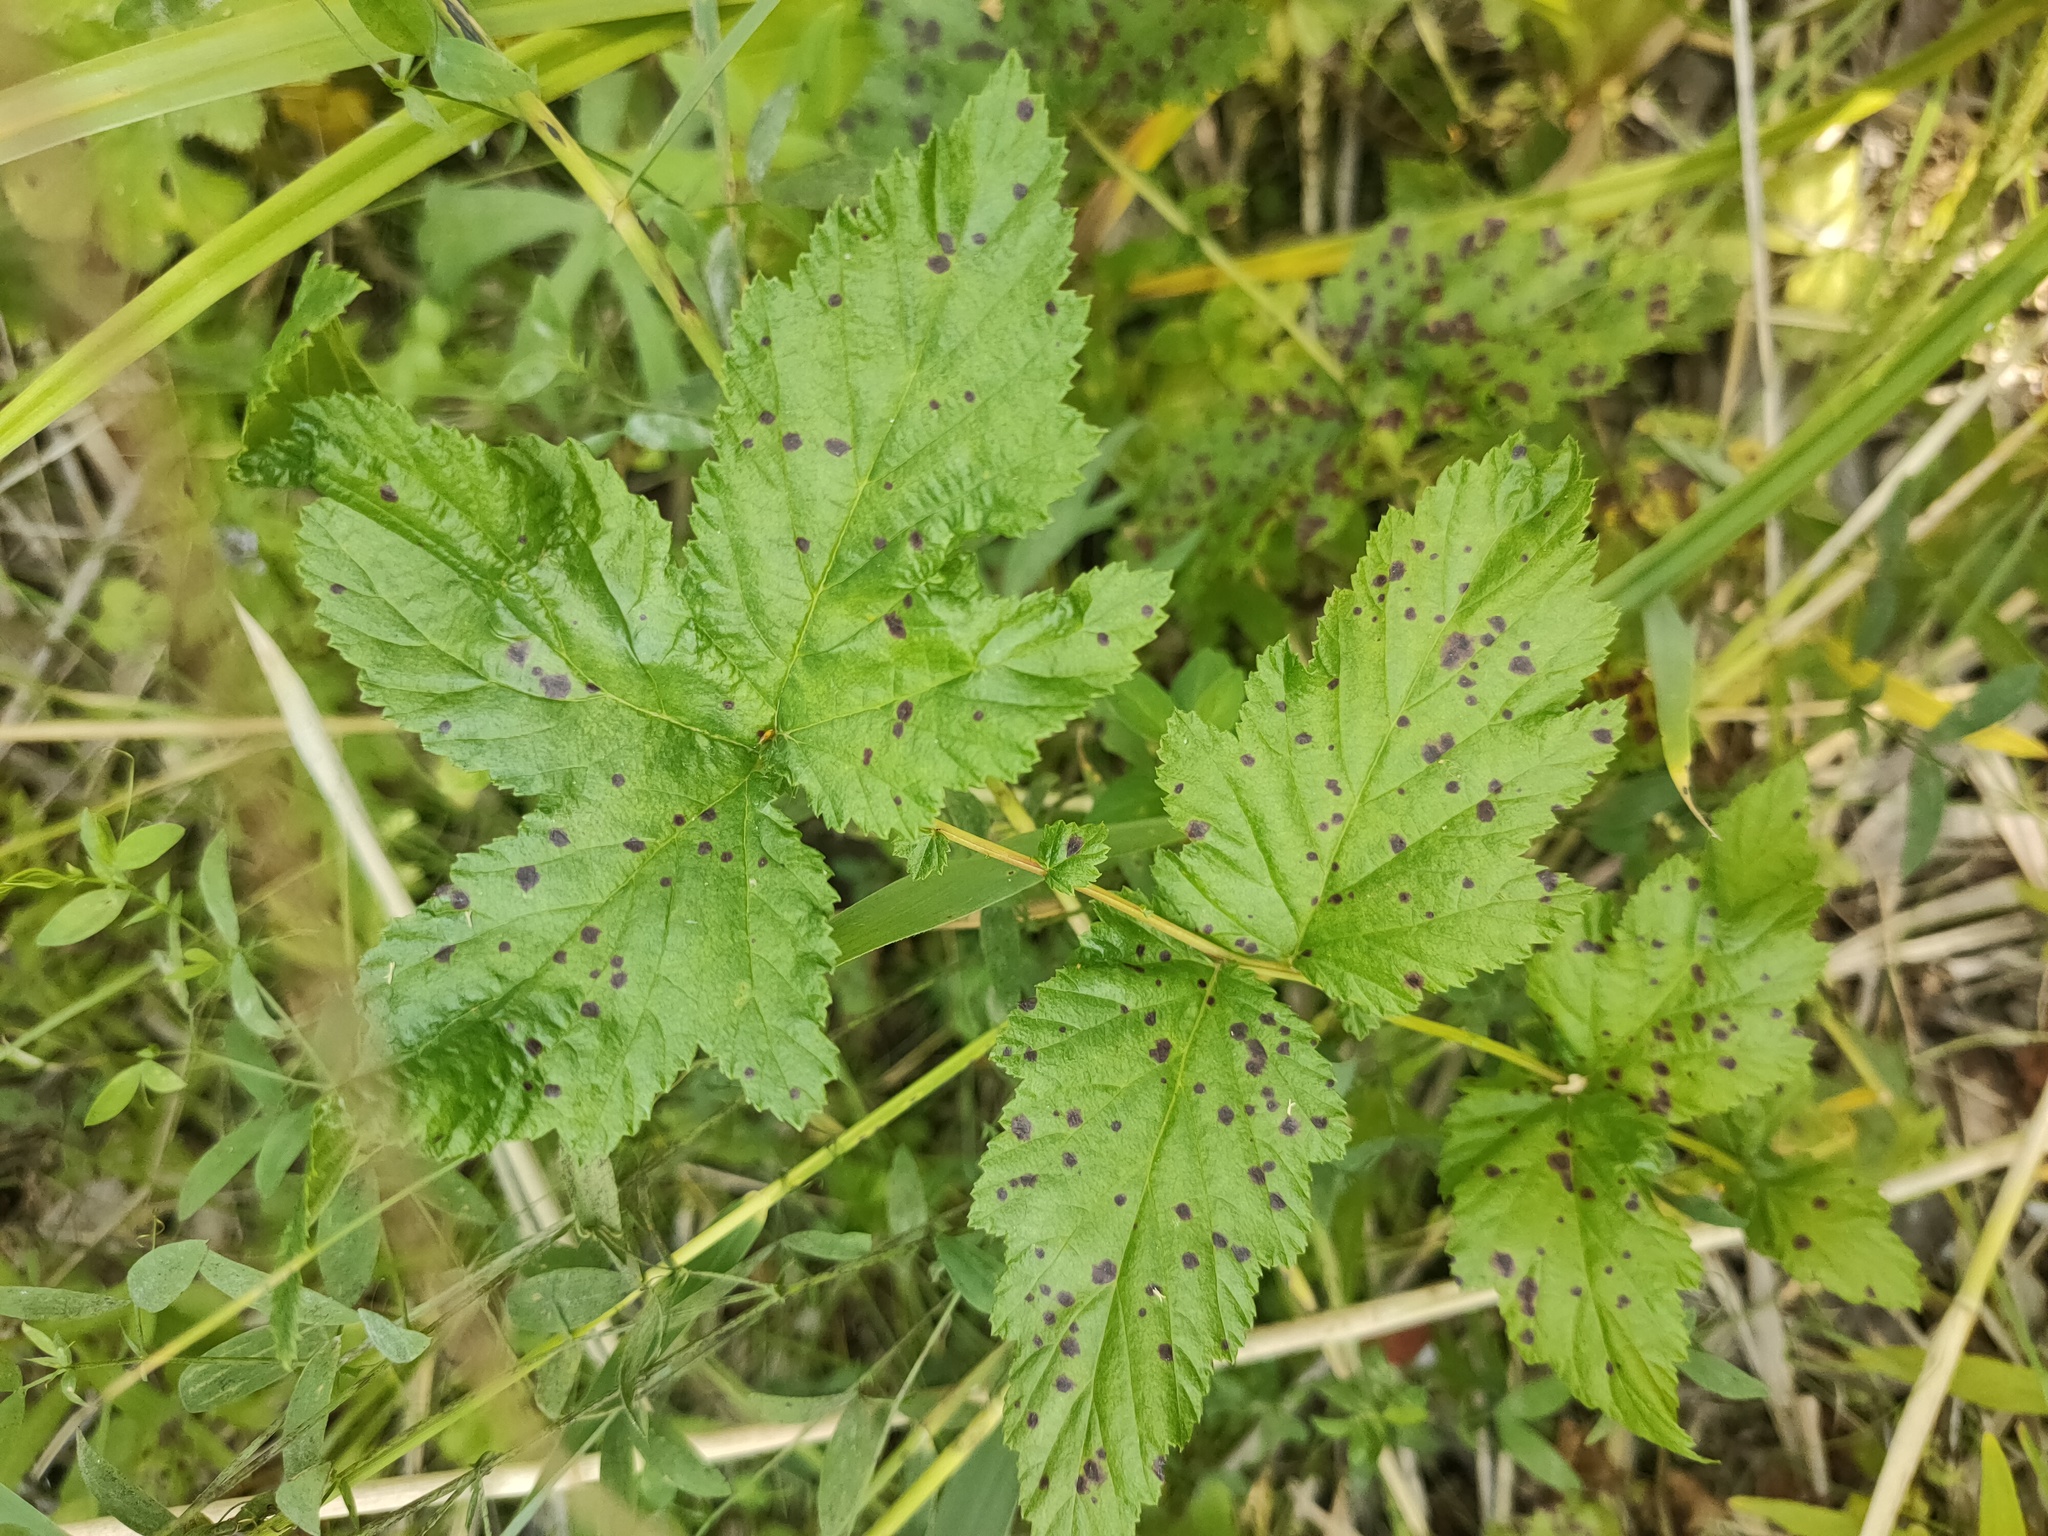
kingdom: Plantae
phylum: Tracheophyta
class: Magnoliopsida
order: Rosales
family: Rosaceae
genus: Filipendula
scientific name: Filipendula ulmaria
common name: Meadowsweet
